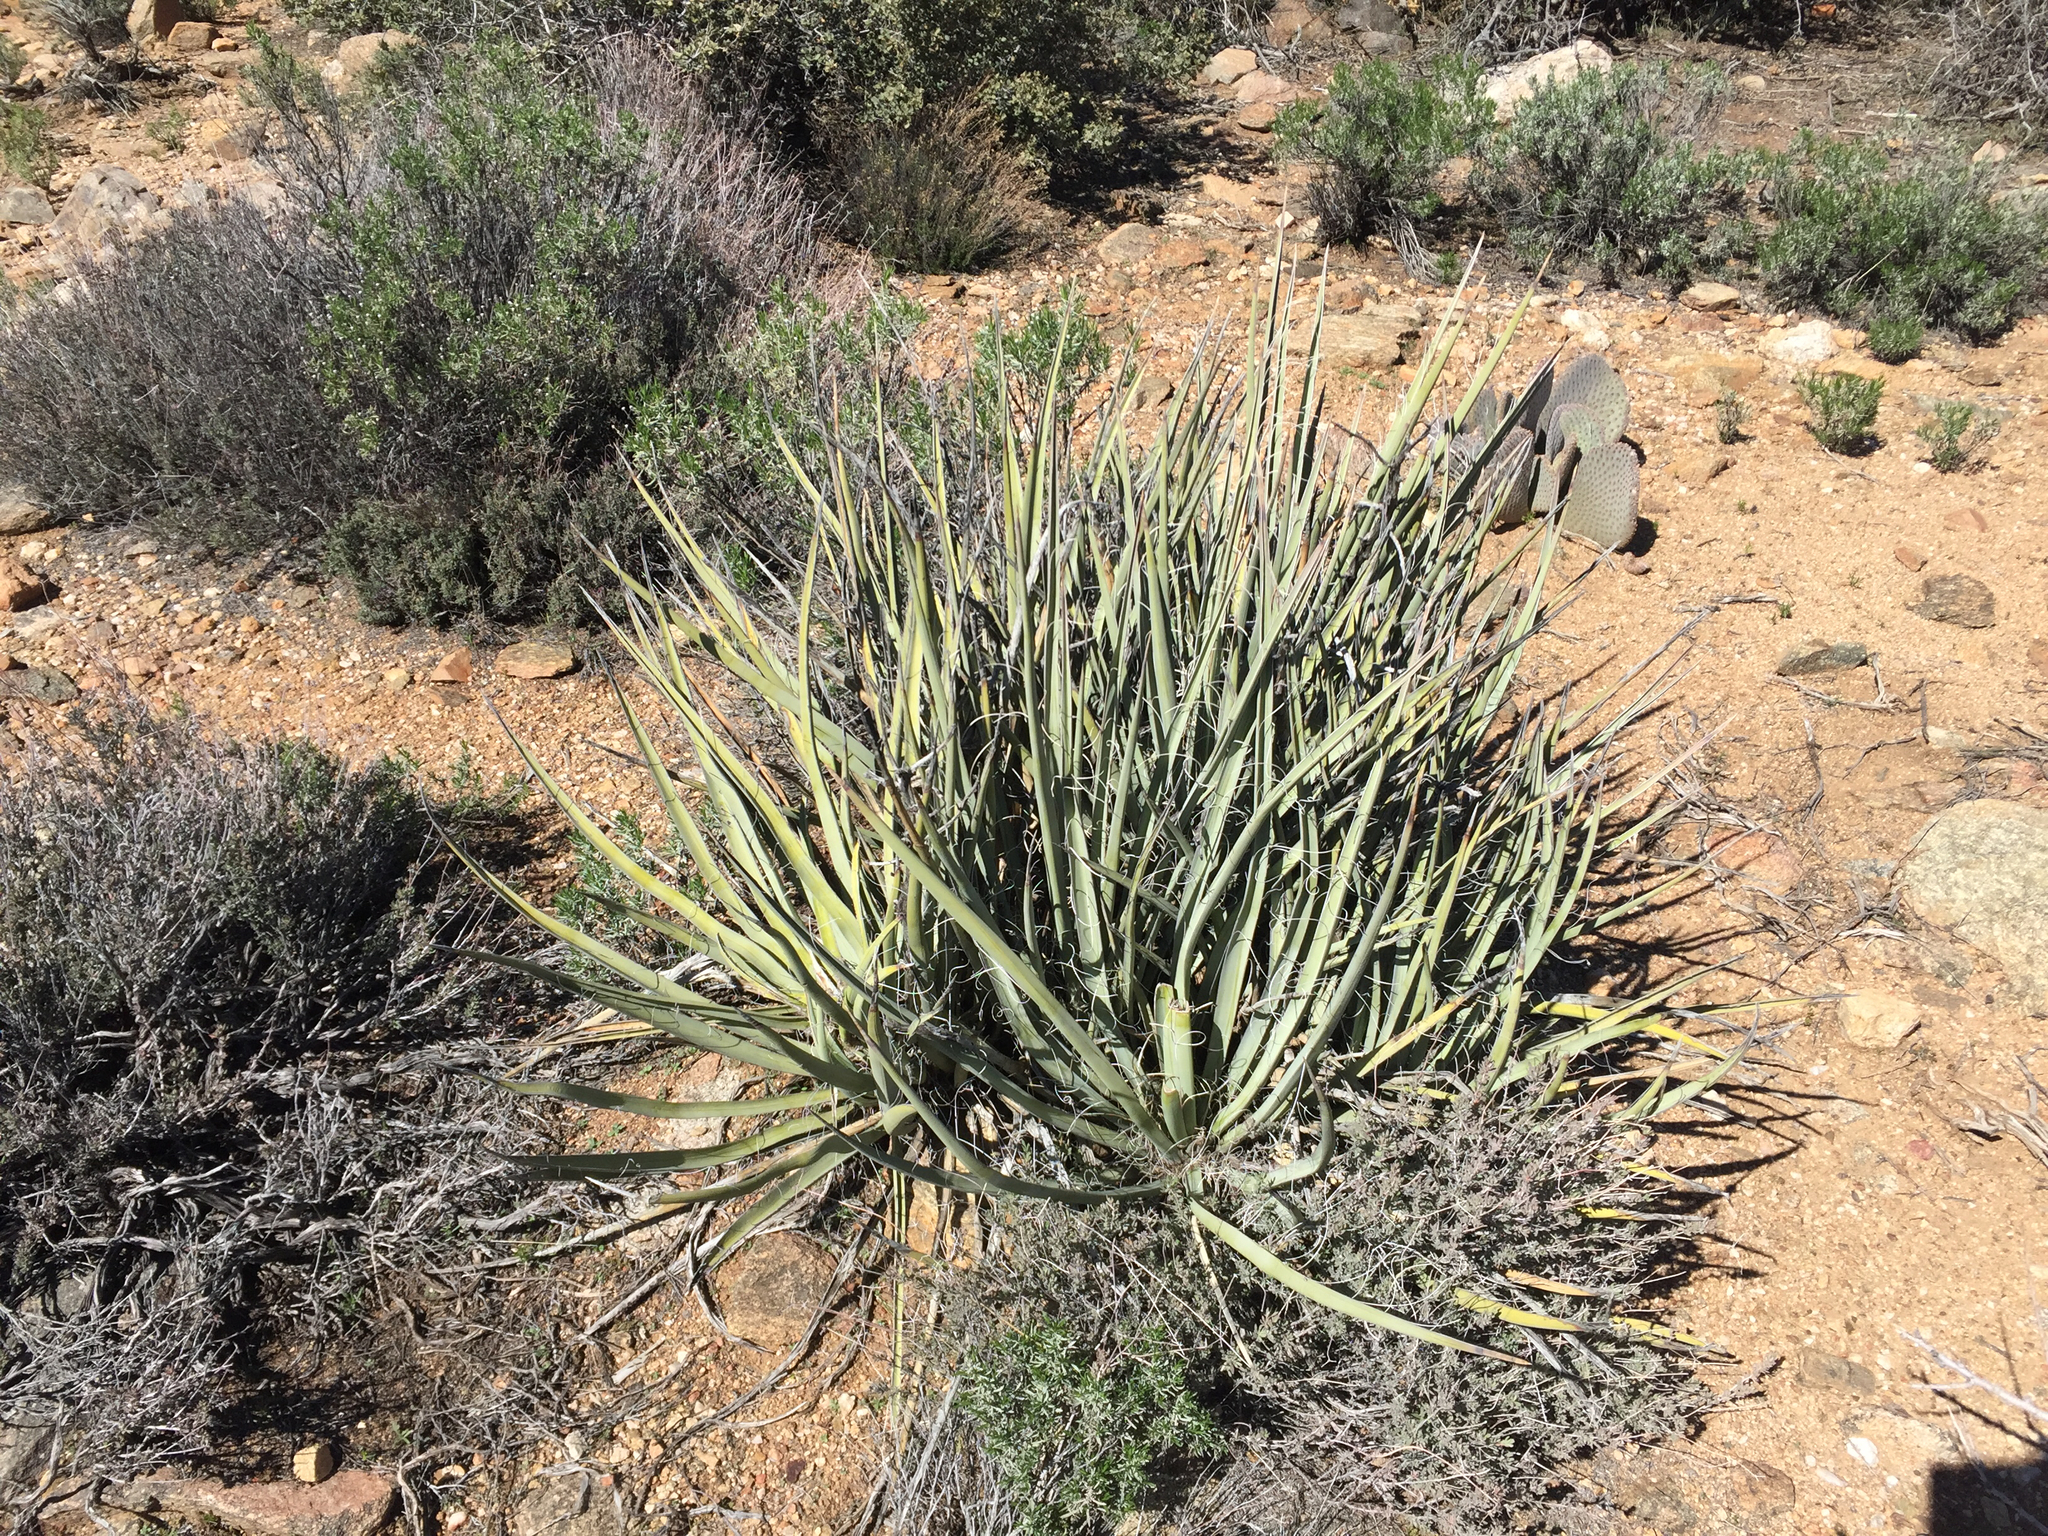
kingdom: Plantae
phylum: Tracheophyta
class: Liliopsida
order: Asparagales
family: Asparagaceae
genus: Yucca
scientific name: Yucca baccata
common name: Banana yucca
